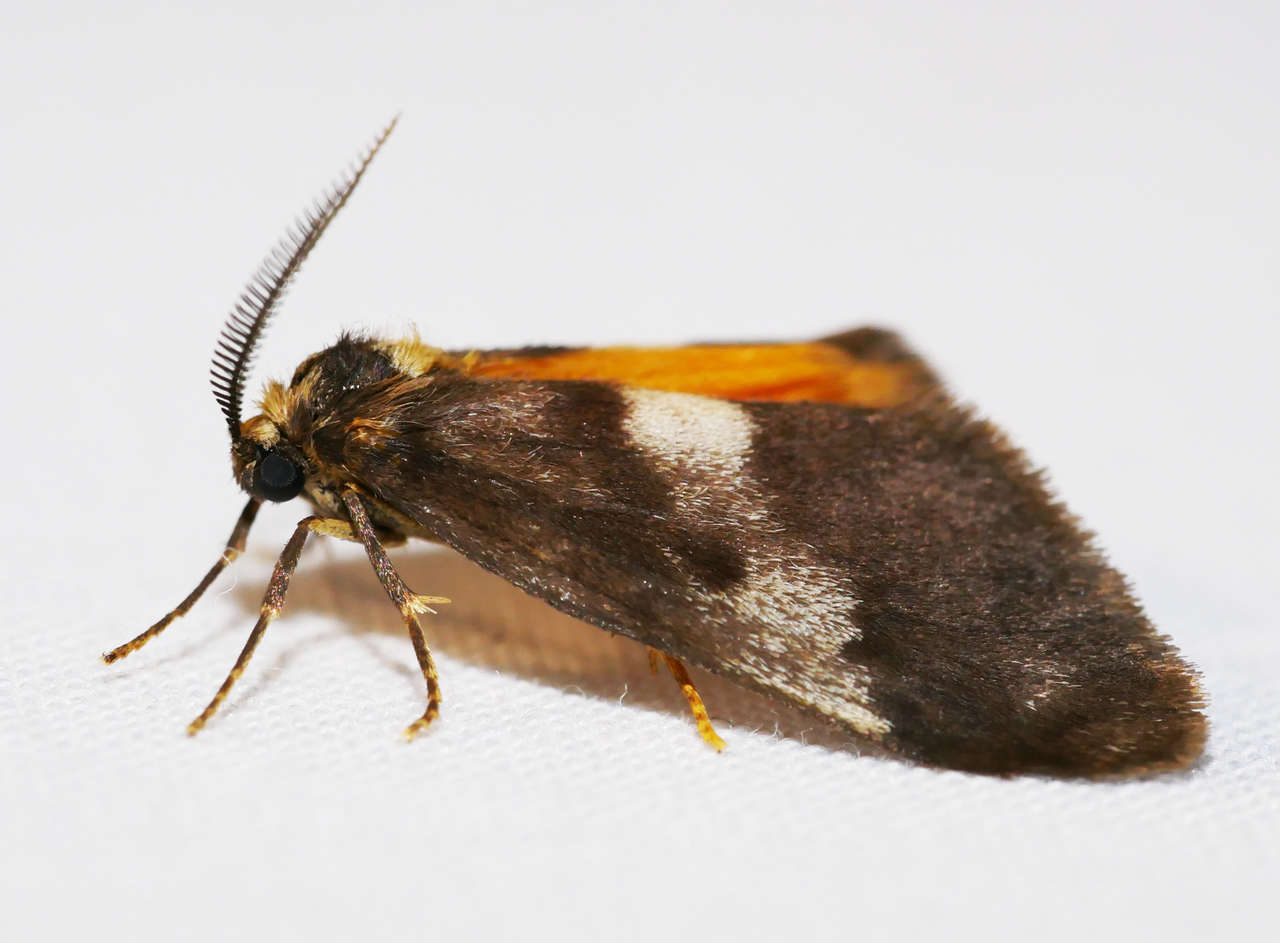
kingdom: Animalia
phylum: Arthropoda
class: Insecta
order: Lepidoptera
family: Erebidae
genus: Anestia
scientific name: Anestia semiochrea
